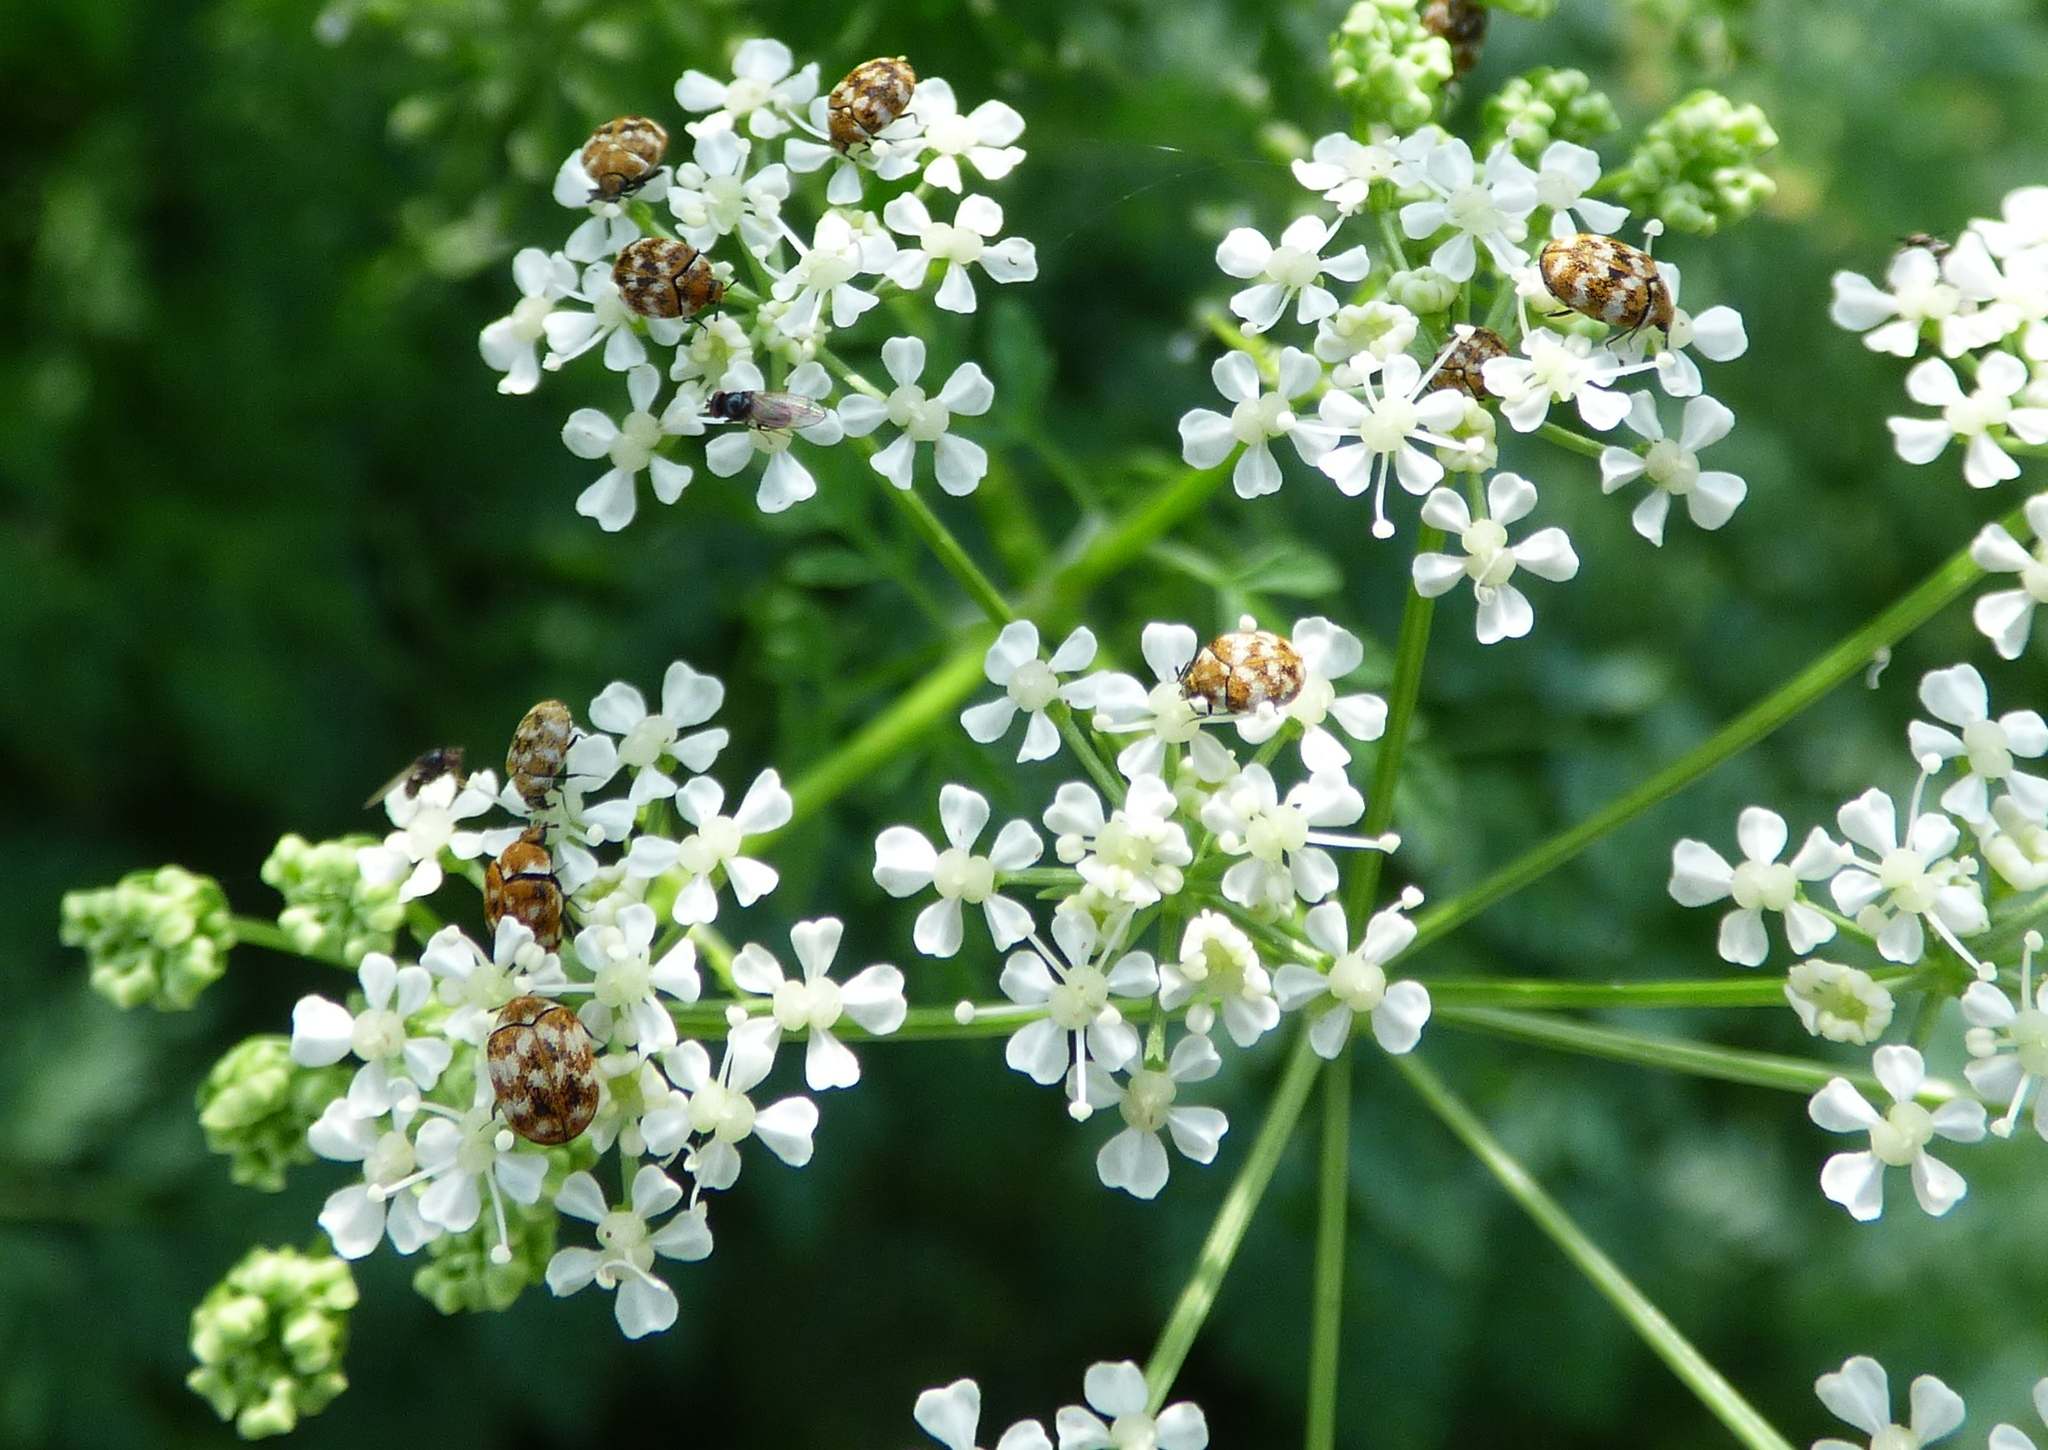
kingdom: Animalia
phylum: Arthropoda
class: Insecta
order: Coleoptera
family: Dermestidae
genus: Anthrenus
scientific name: Anthrenus verbasci
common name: Varied carpet beetle
